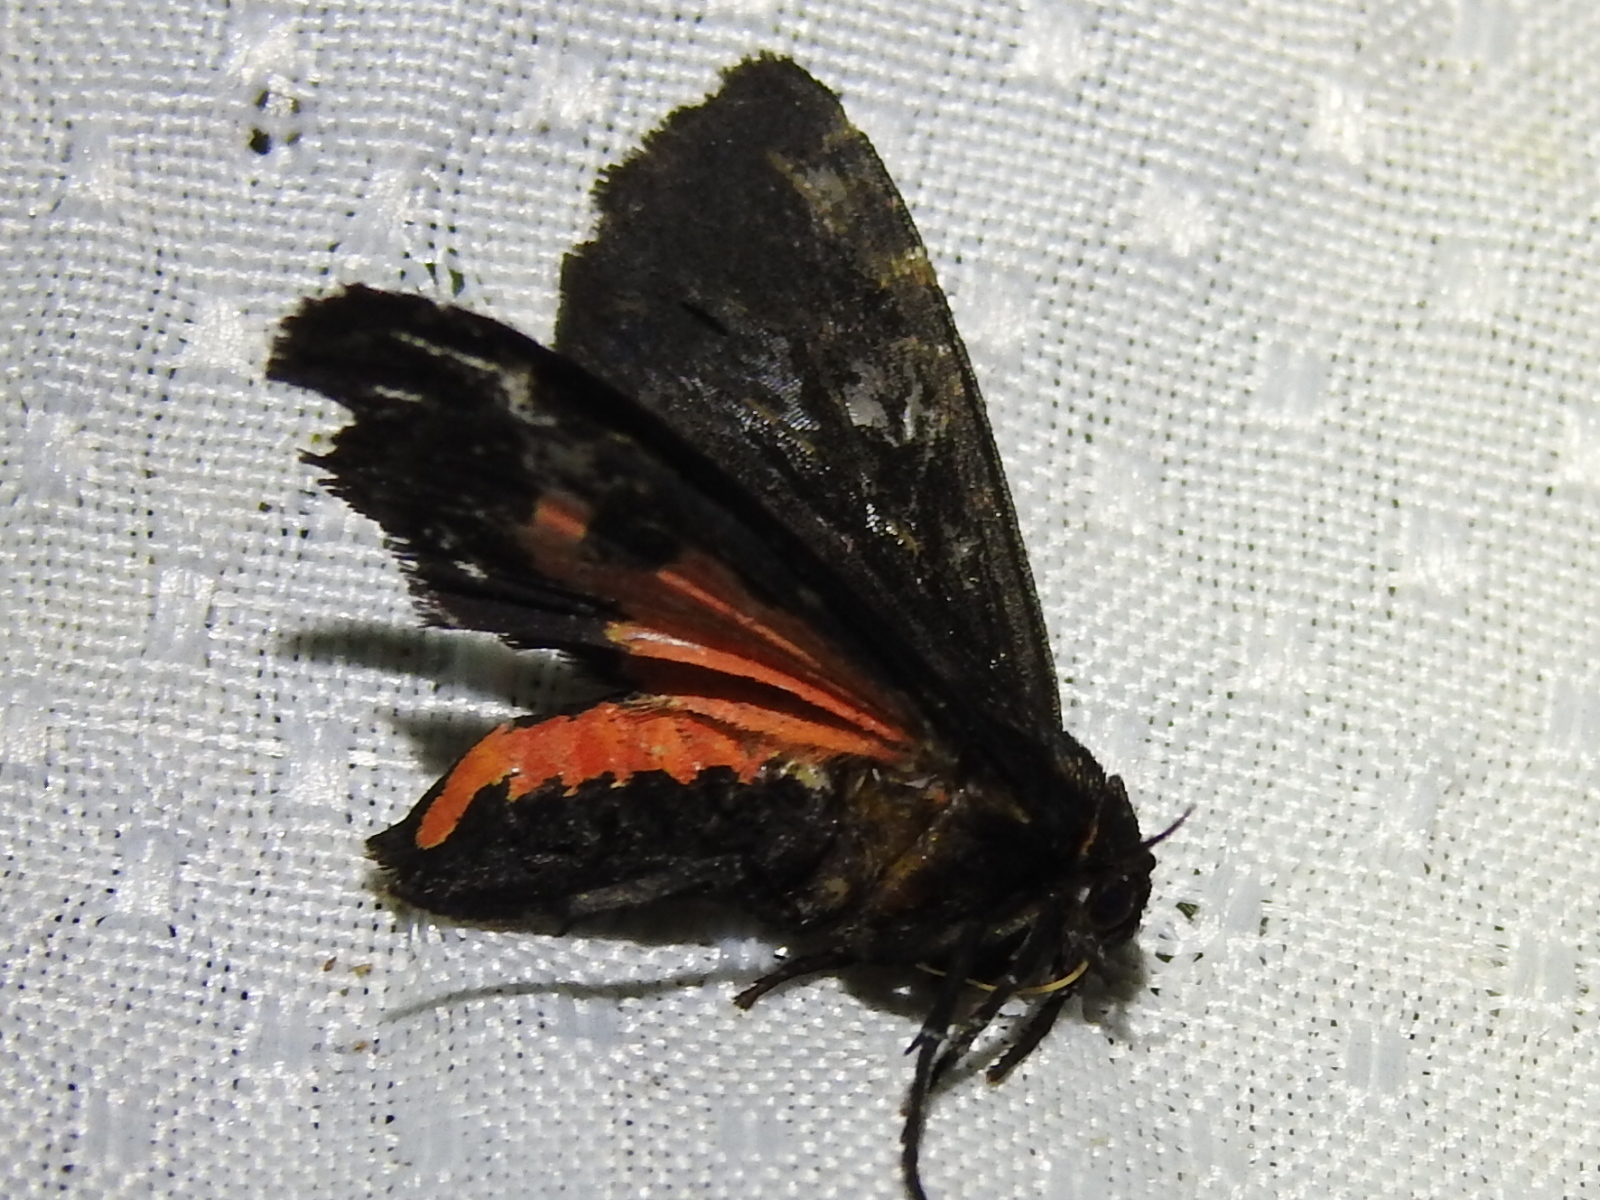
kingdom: Animalia
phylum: Arthropoda
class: Insecta
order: Lepidoptera
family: Erebidae
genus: Apantesis
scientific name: Apantesis
